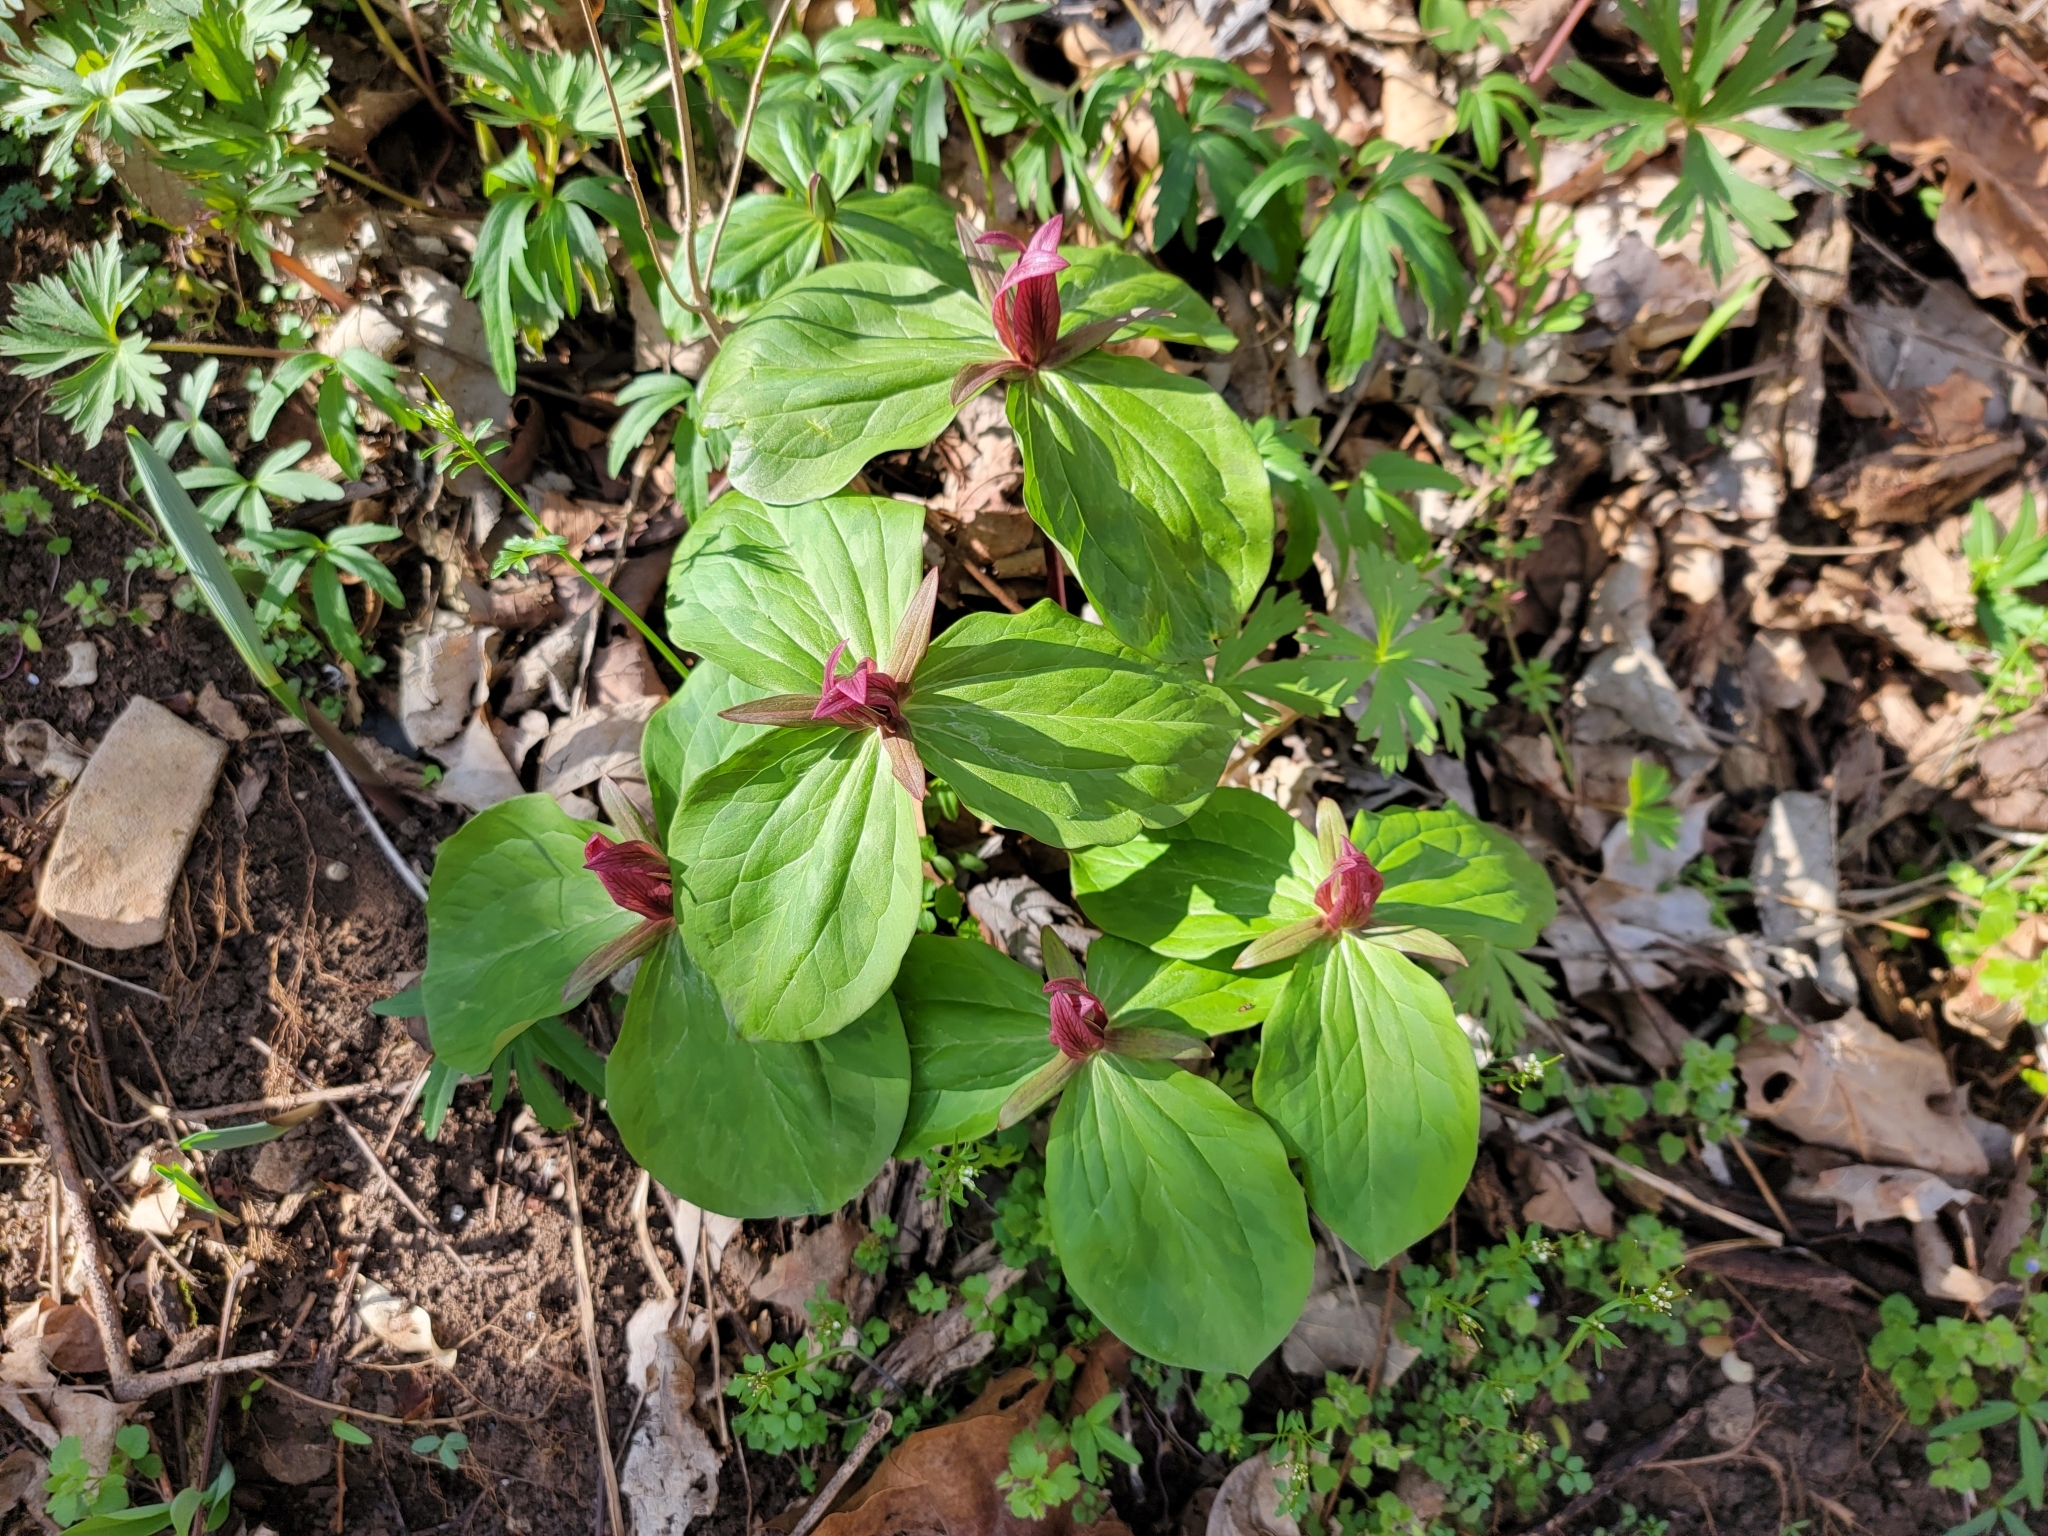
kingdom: Plantae
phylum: Tracheophyta
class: Liliopsida
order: Liliales
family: Melanthiaceae
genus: Trillium
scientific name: Trillium sessile
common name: Sessile trillium
